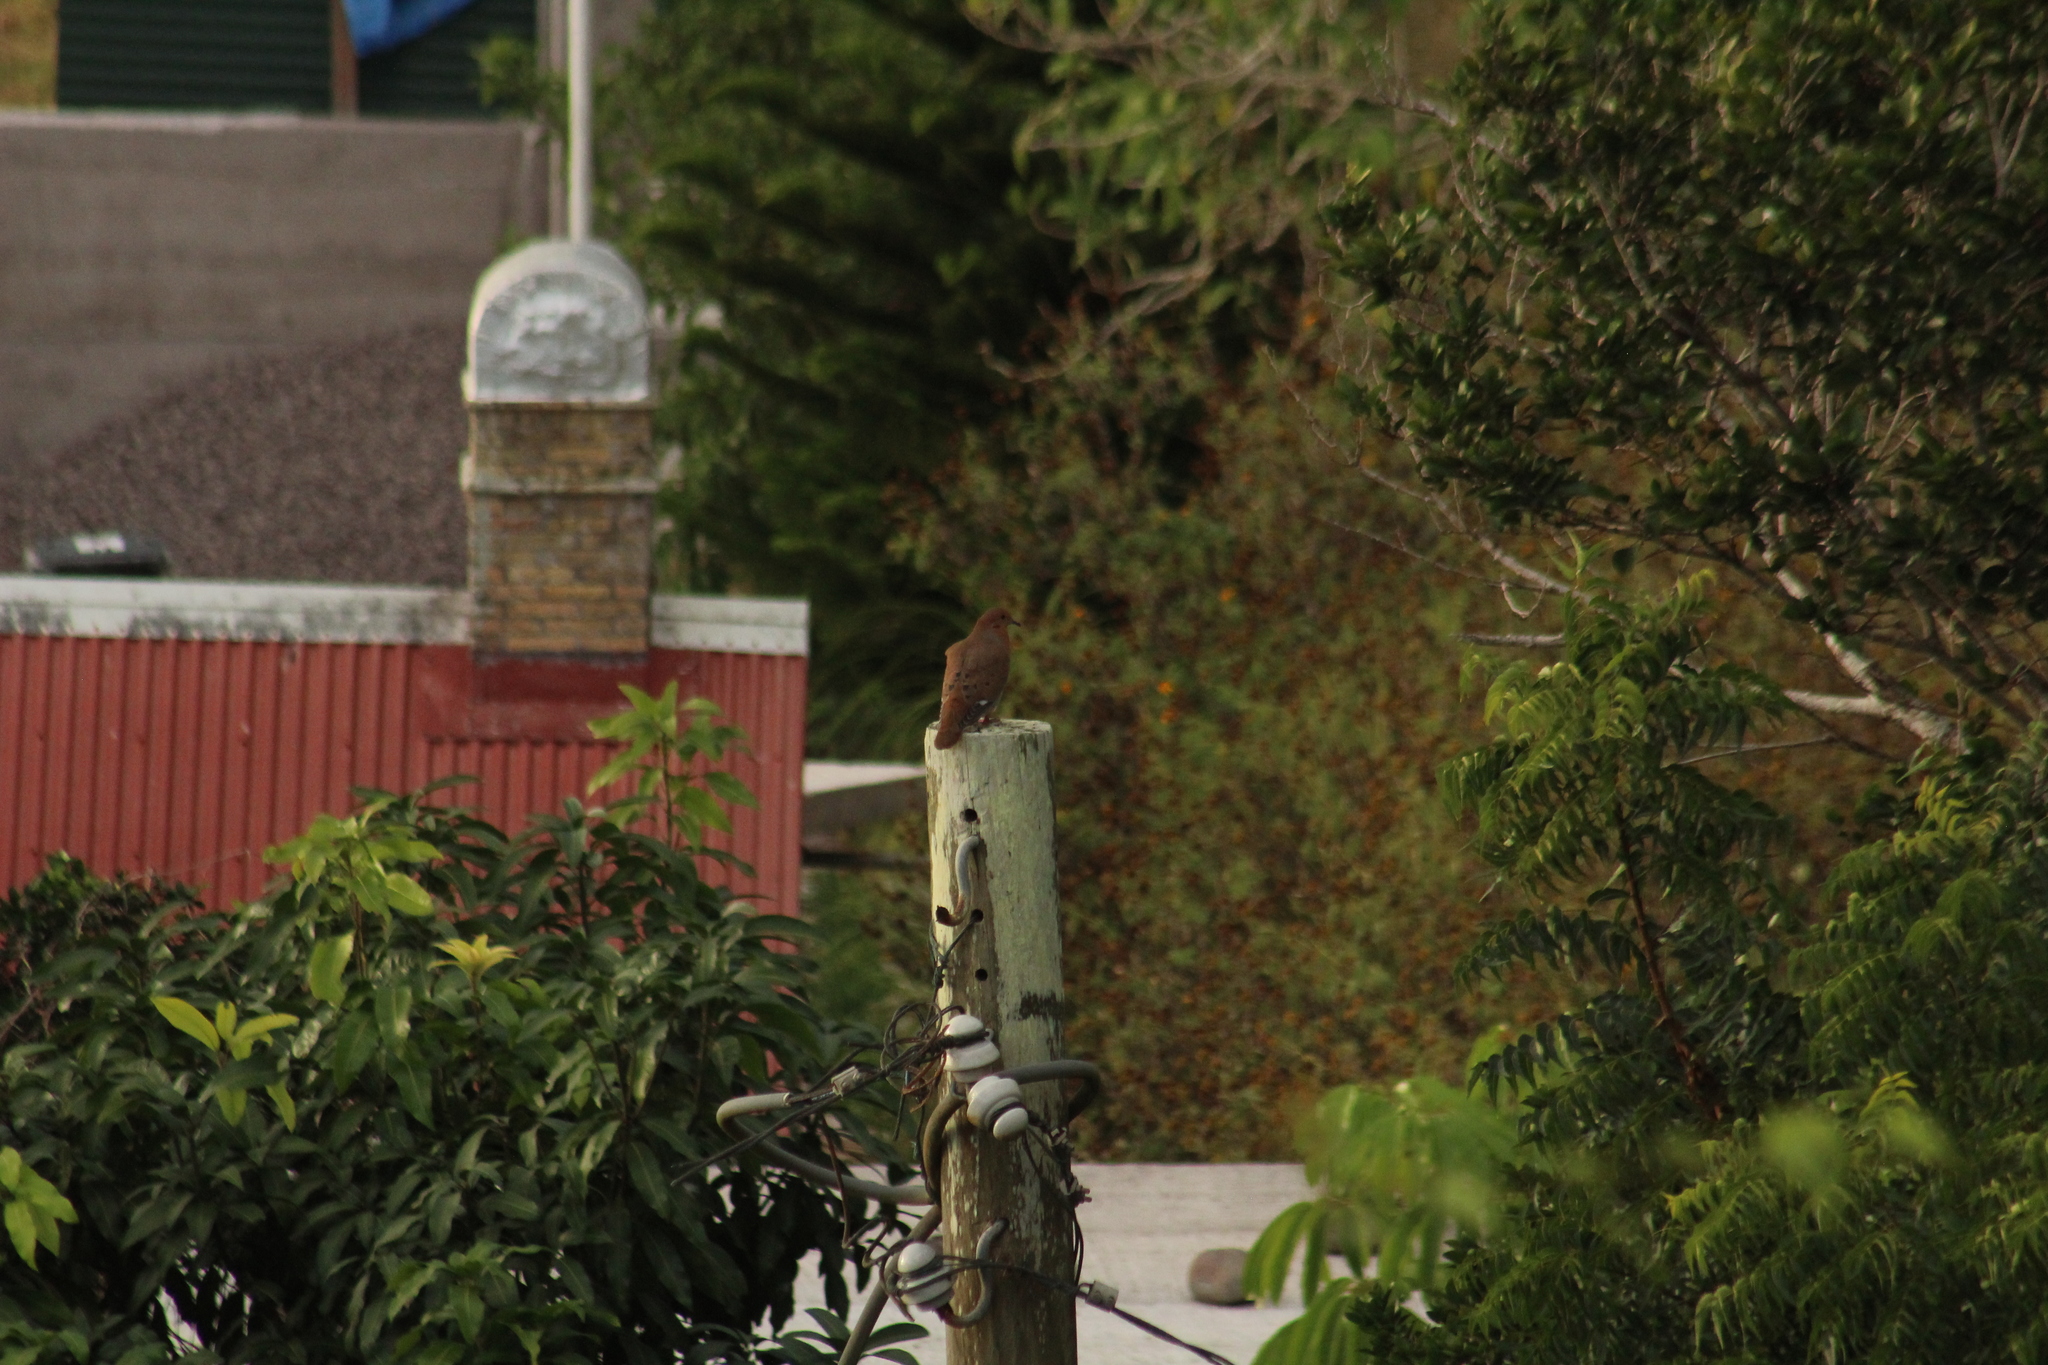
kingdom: Animalia
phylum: Chordata
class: Aves
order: Columbiformes
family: Columbidae
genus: Zenaida
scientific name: Zenaida aurita
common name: Zenaida dove
